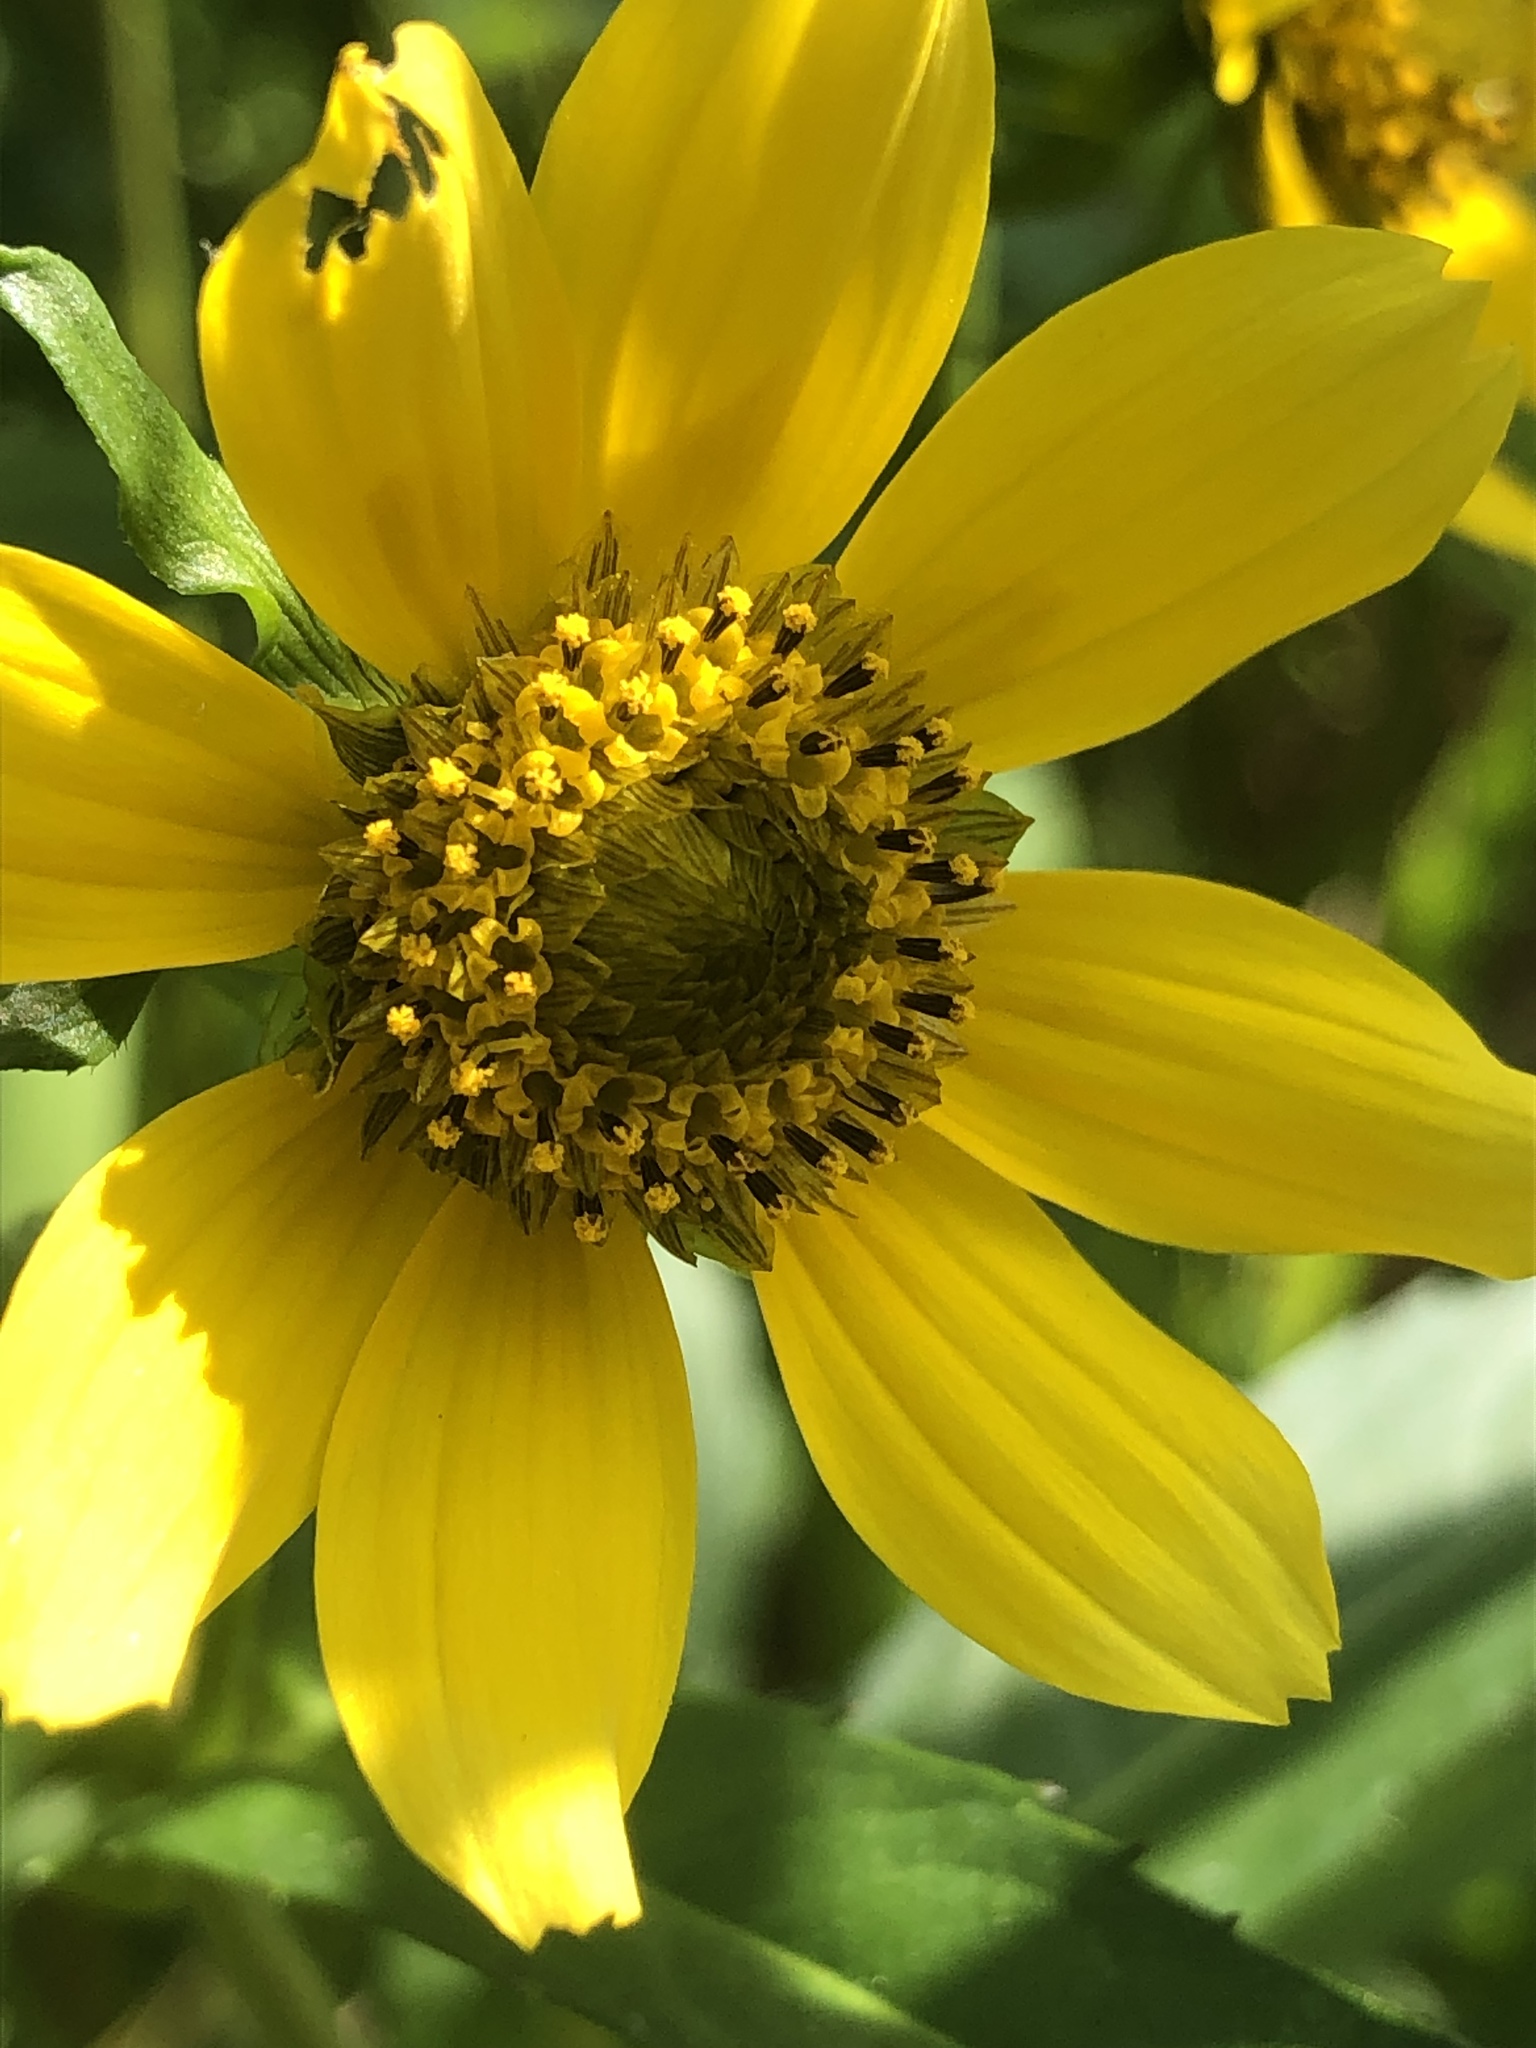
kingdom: Plantae
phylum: Tracheophyta
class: Magnoliopsida
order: Asterales
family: Asteraceae
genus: Bidens
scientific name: Bidens cernua
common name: Nodding bur-marigold
